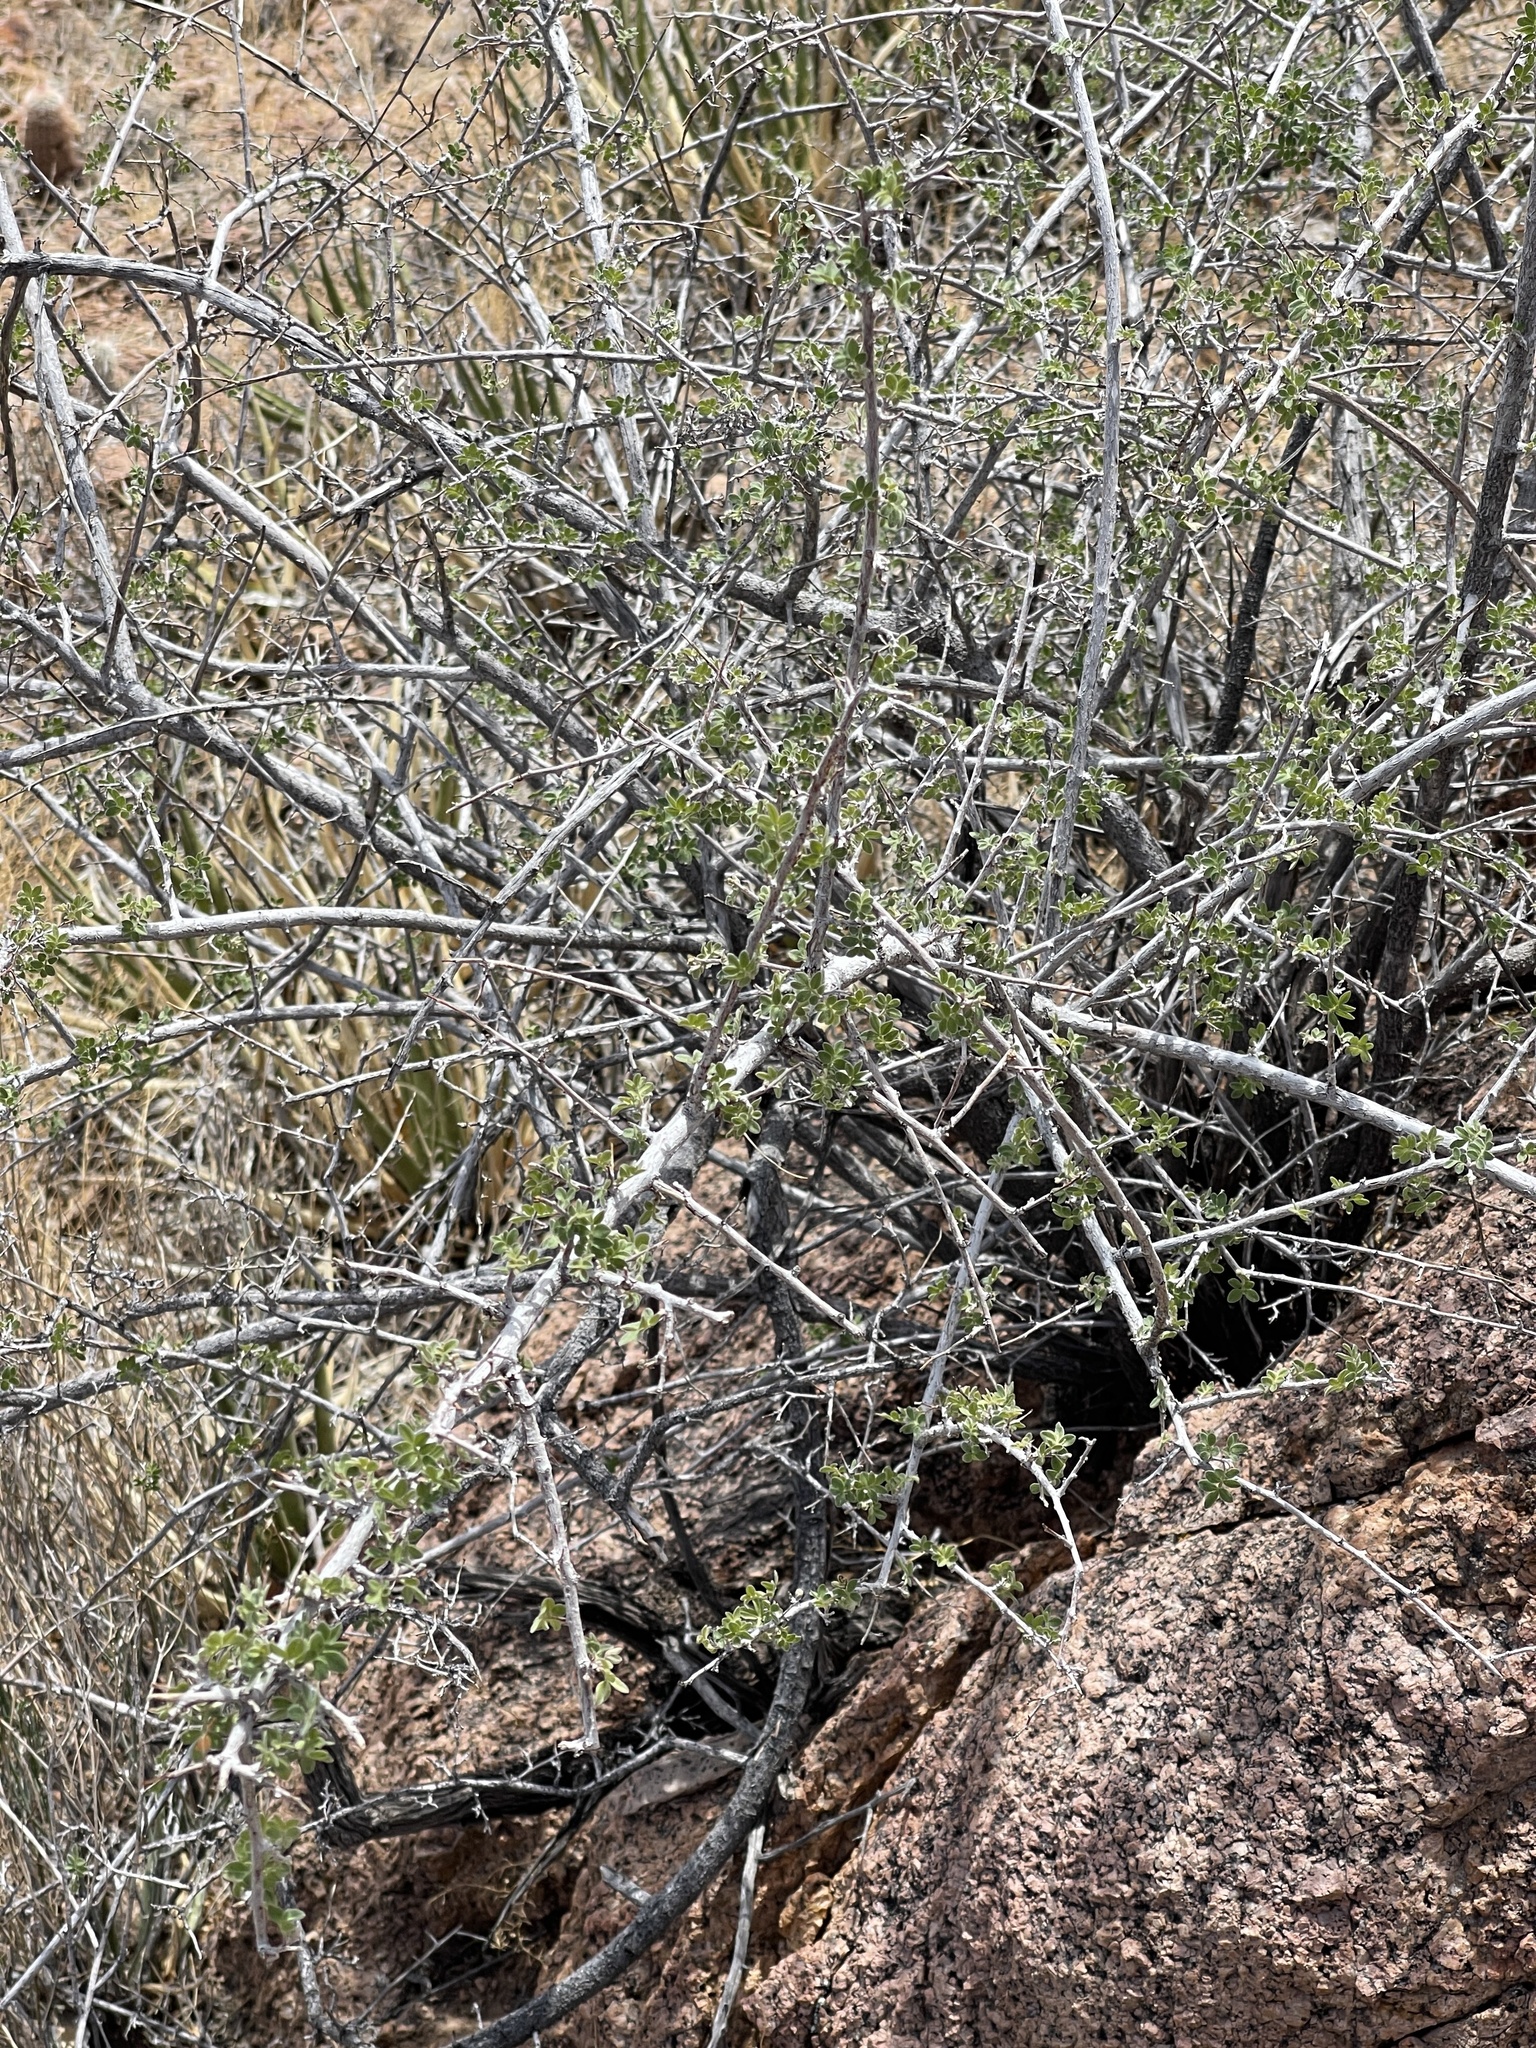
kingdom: Plantae
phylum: Tracheophyta
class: Magnoliopsida
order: Sapindales
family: Anacardiaceae
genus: Rhus
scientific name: Rhus microphylla
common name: Desert sumac
